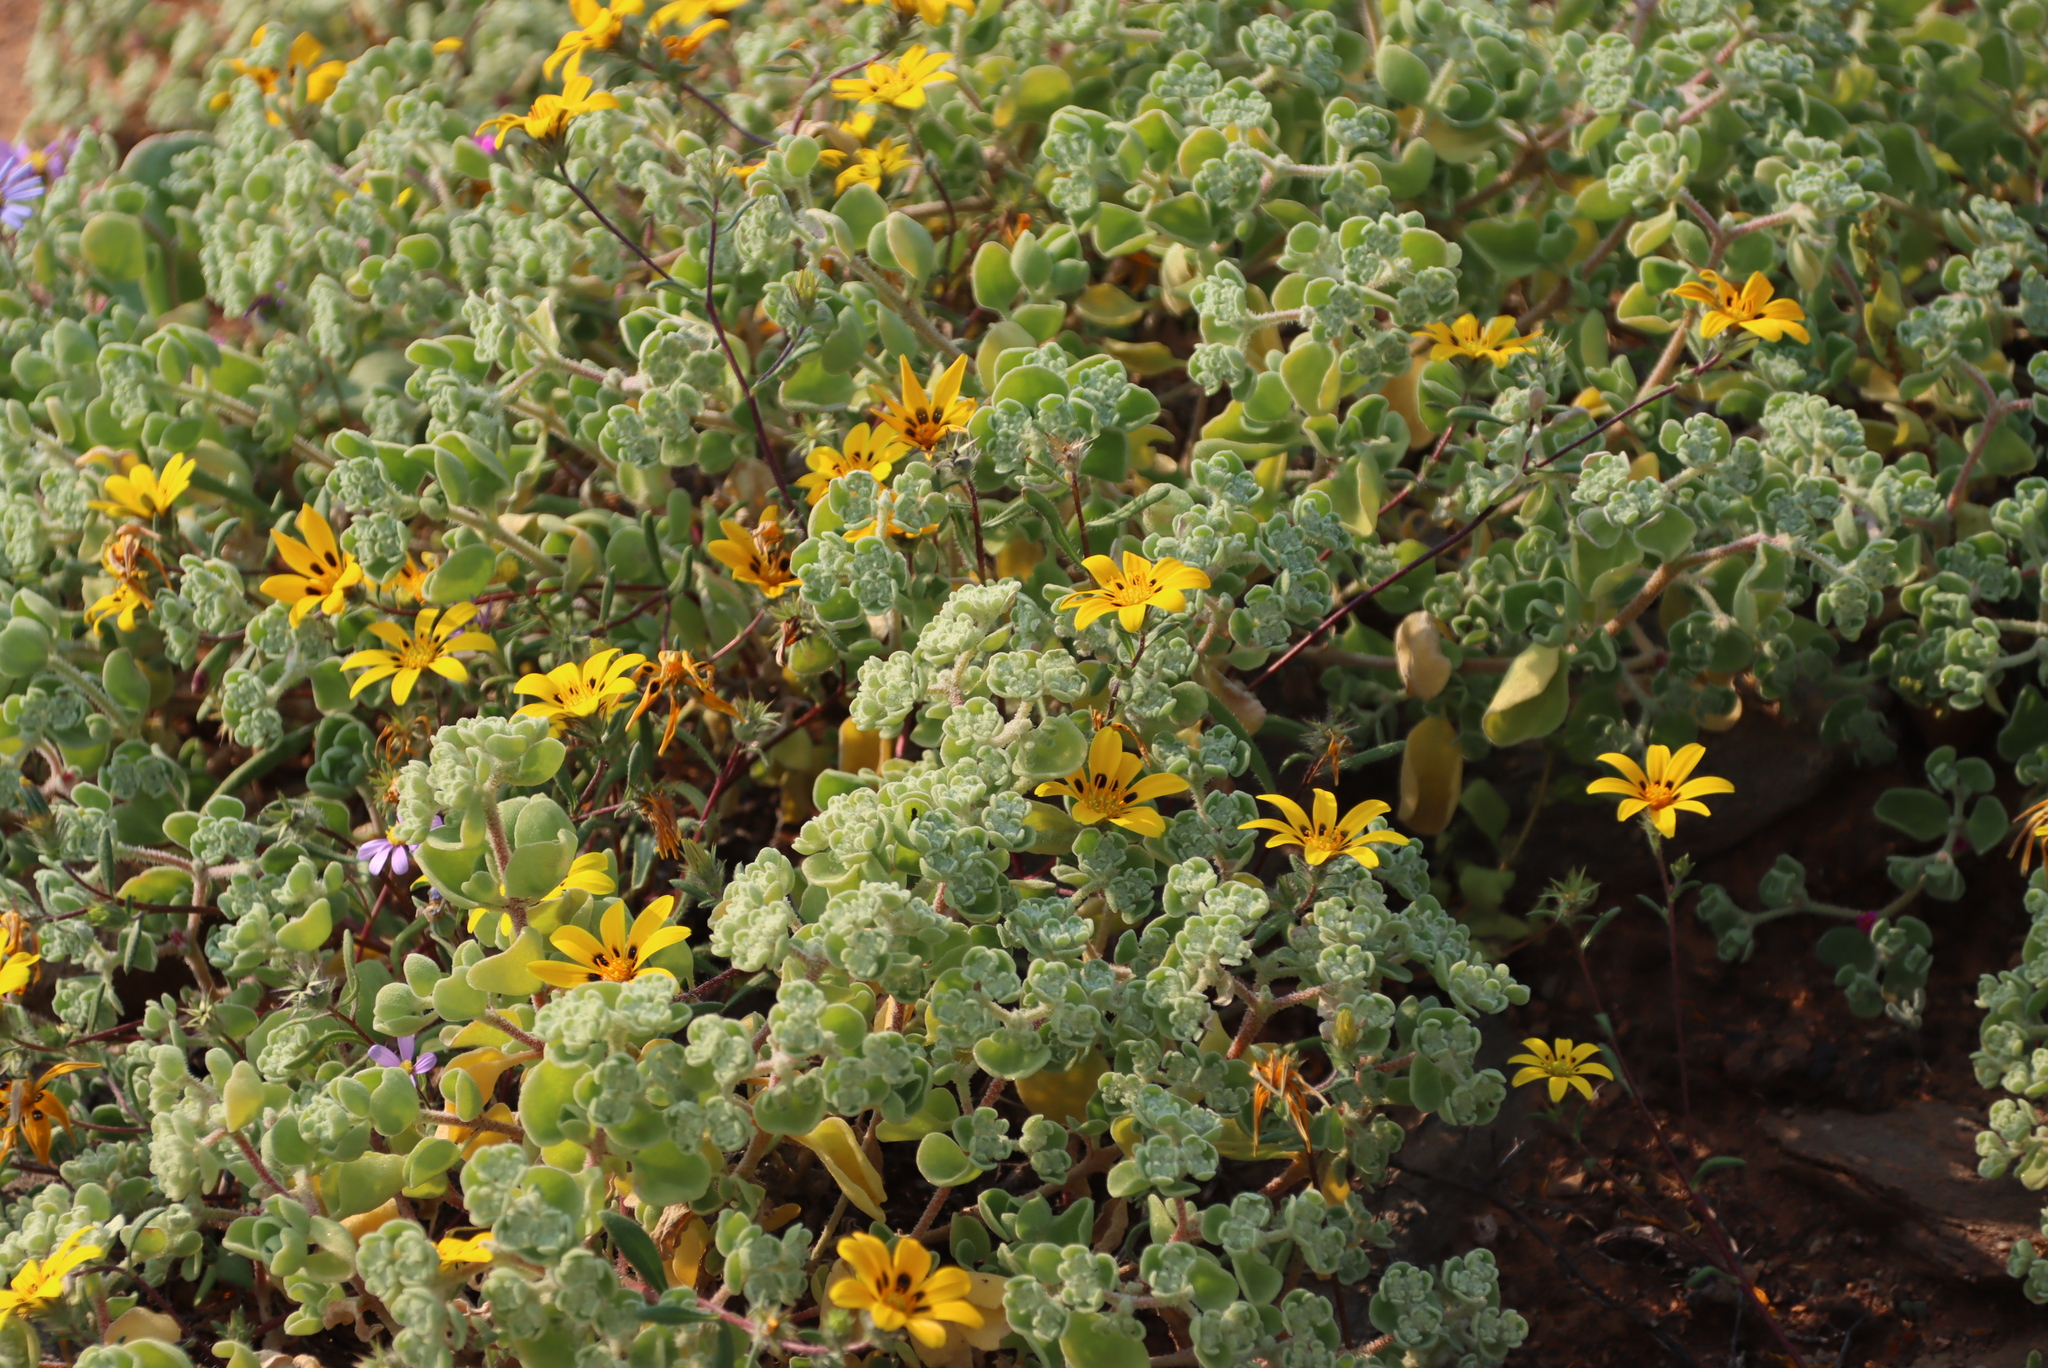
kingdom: Plantae
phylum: Tracheophyta
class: Magnoliopsida
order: Caryophyllales
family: Aizoaceae
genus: Aizoon
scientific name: Aizoon dregeanum
